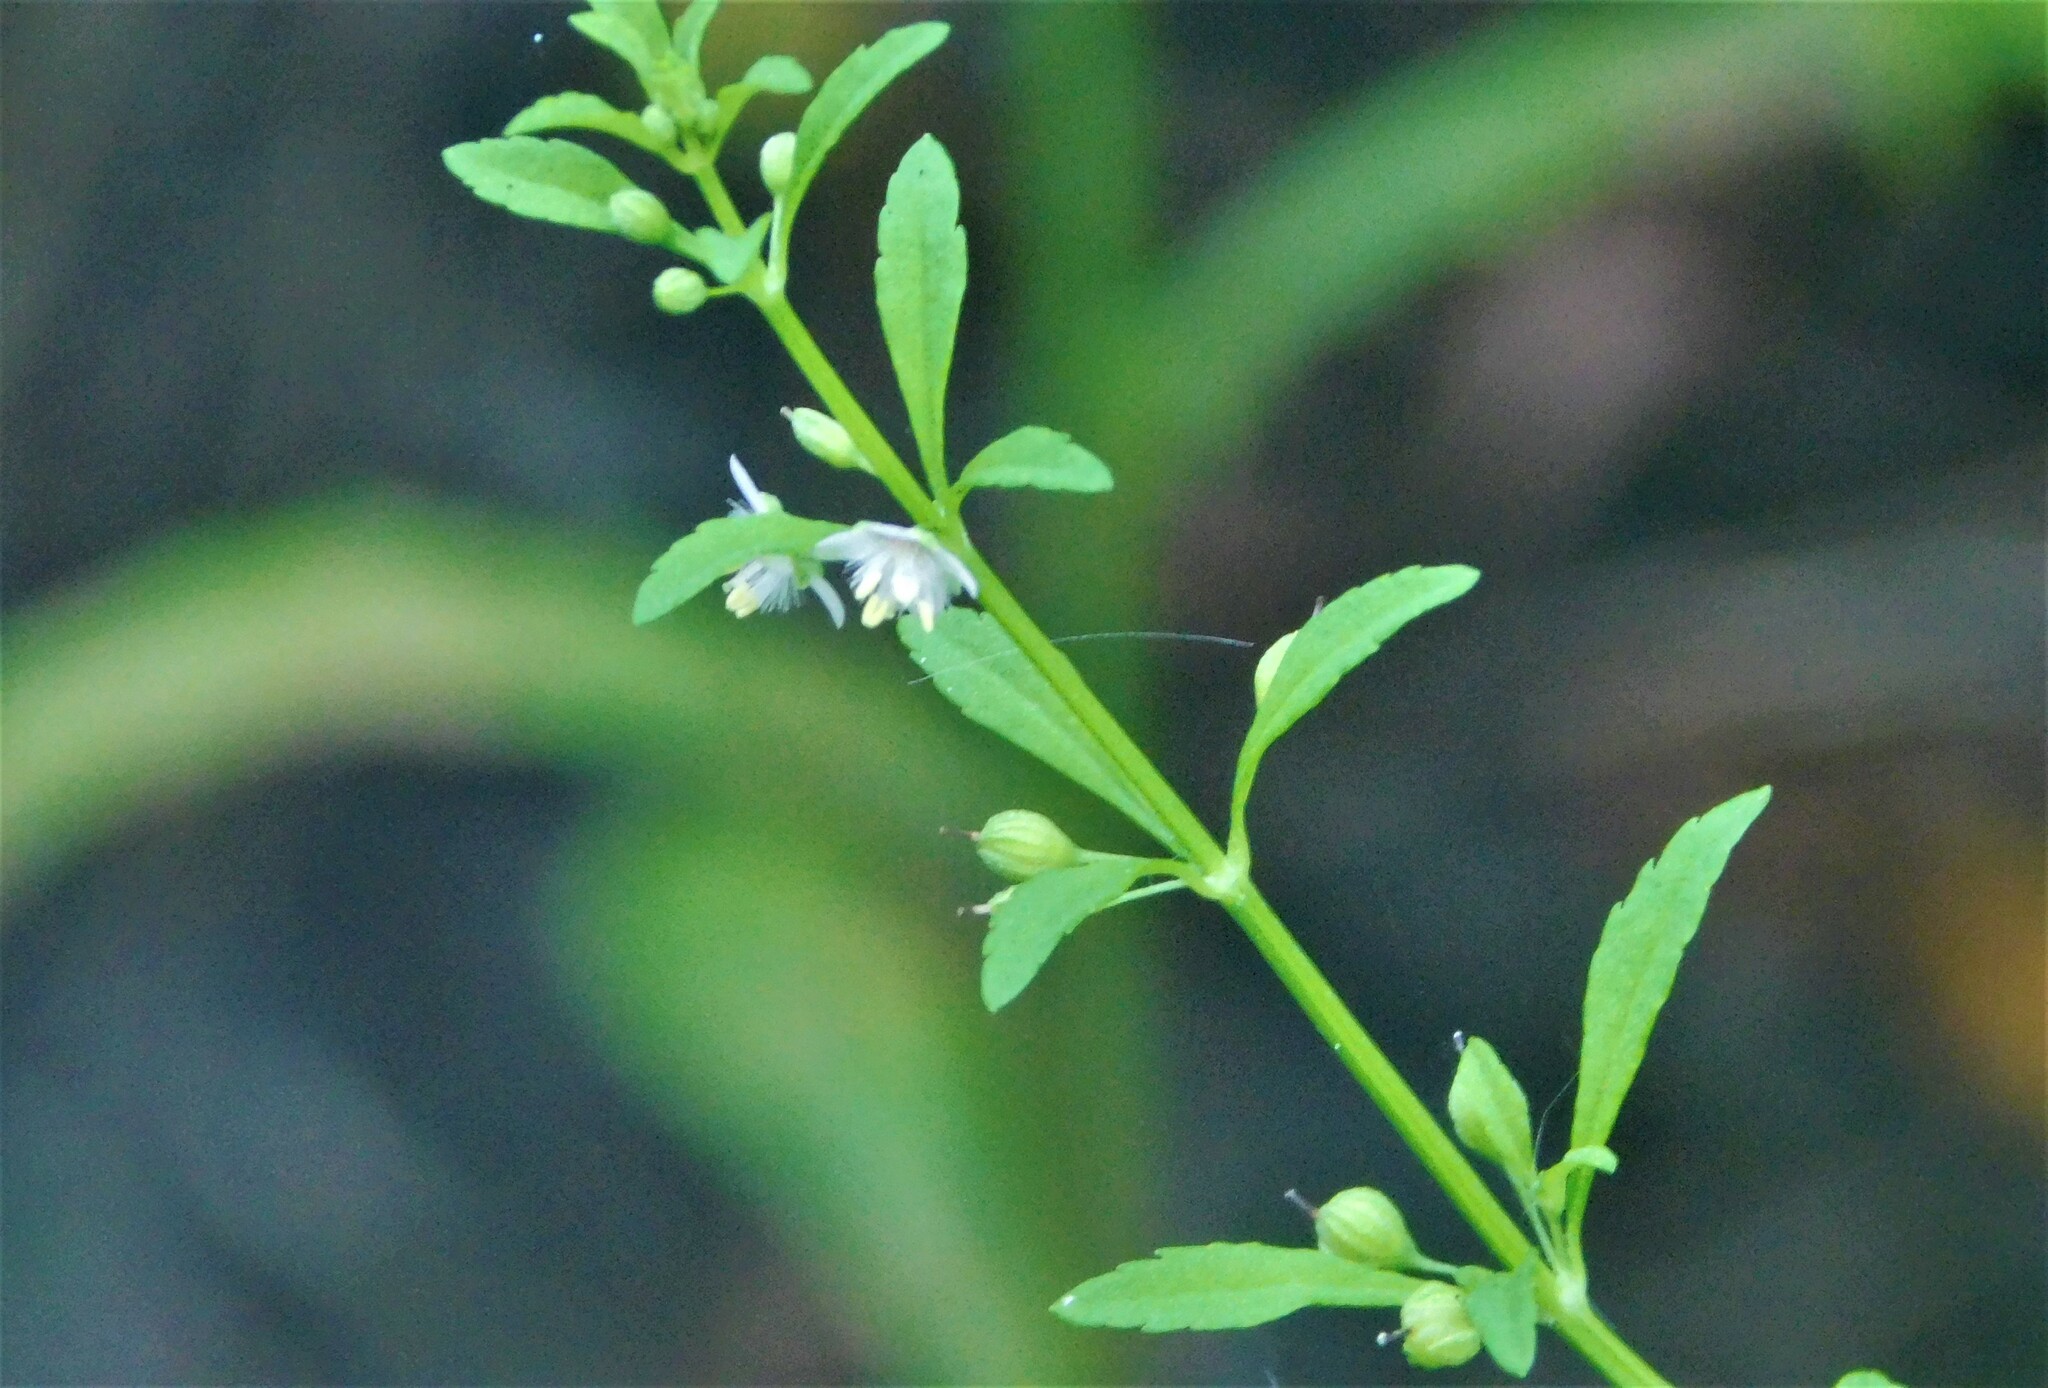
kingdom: Plantae
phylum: Tracheophyta
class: Magnoliopsida
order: Lamiales
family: Plantaginaceae
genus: Scoparia
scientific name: Scoparia dulcis
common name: Scoparia-weed
